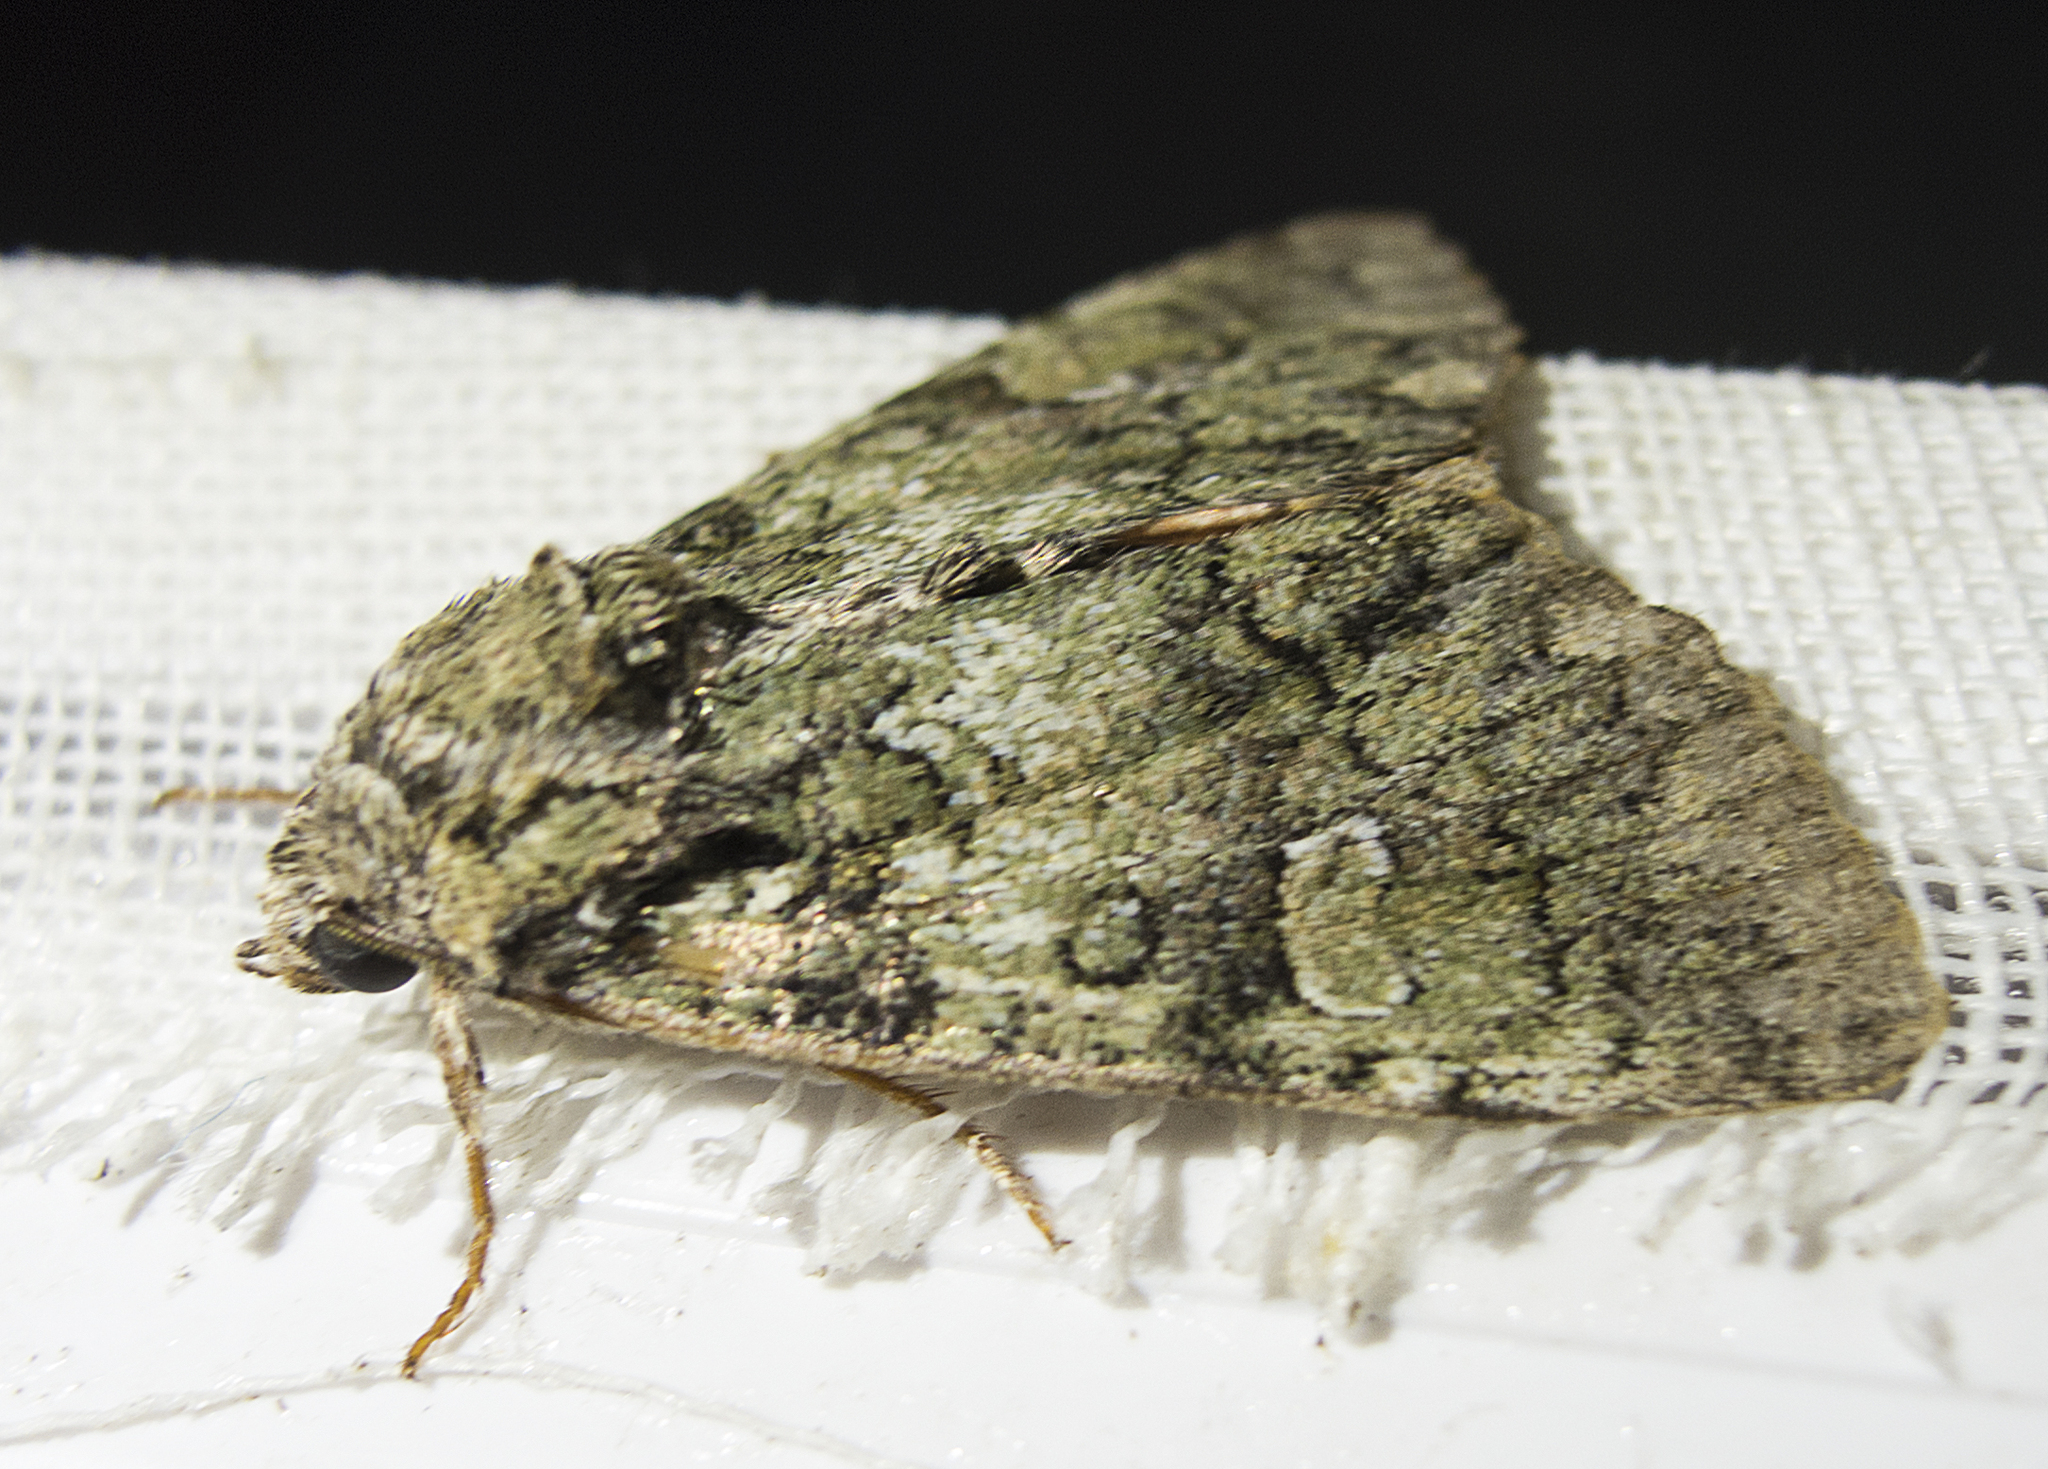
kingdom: Animalia
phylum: Arthropoda
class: Insecta
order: Lepidoptera
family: Noctuidae
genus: Polyphaenis
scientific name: Polyphaenis sericata
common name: Guernsey underwing
